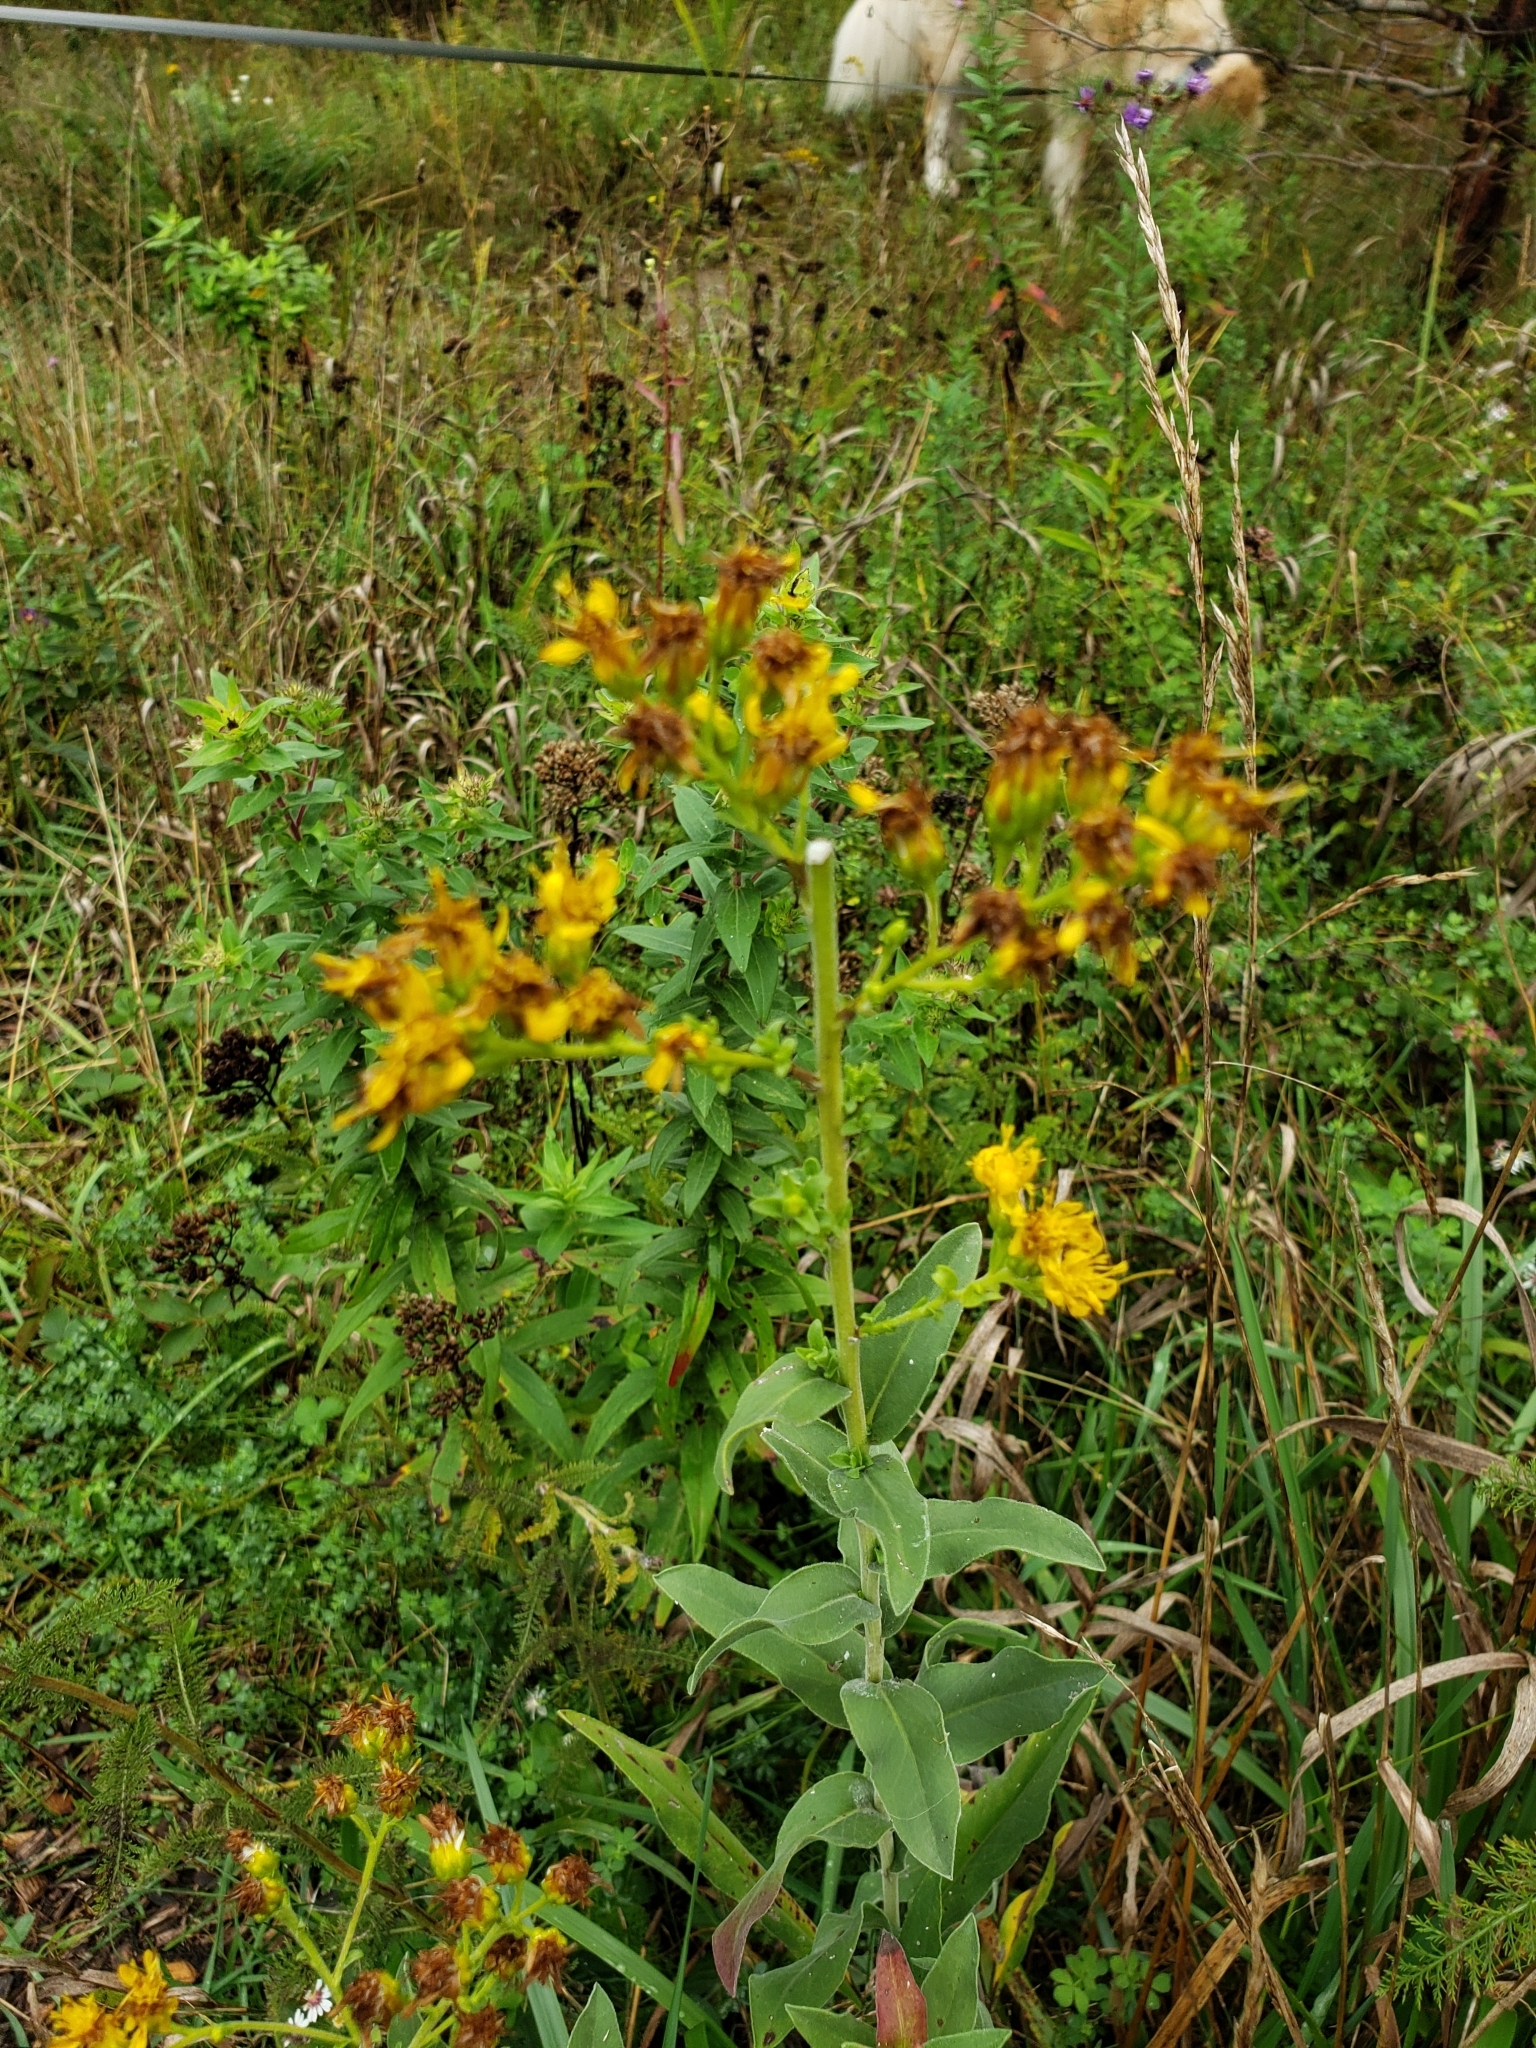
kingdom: Plantae
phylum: Tracheophyta
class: Magnoliopsida
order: Asterales
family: Asteraceae
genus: Solidago
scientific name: Solidago rigida
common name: Rigid goldenrod
